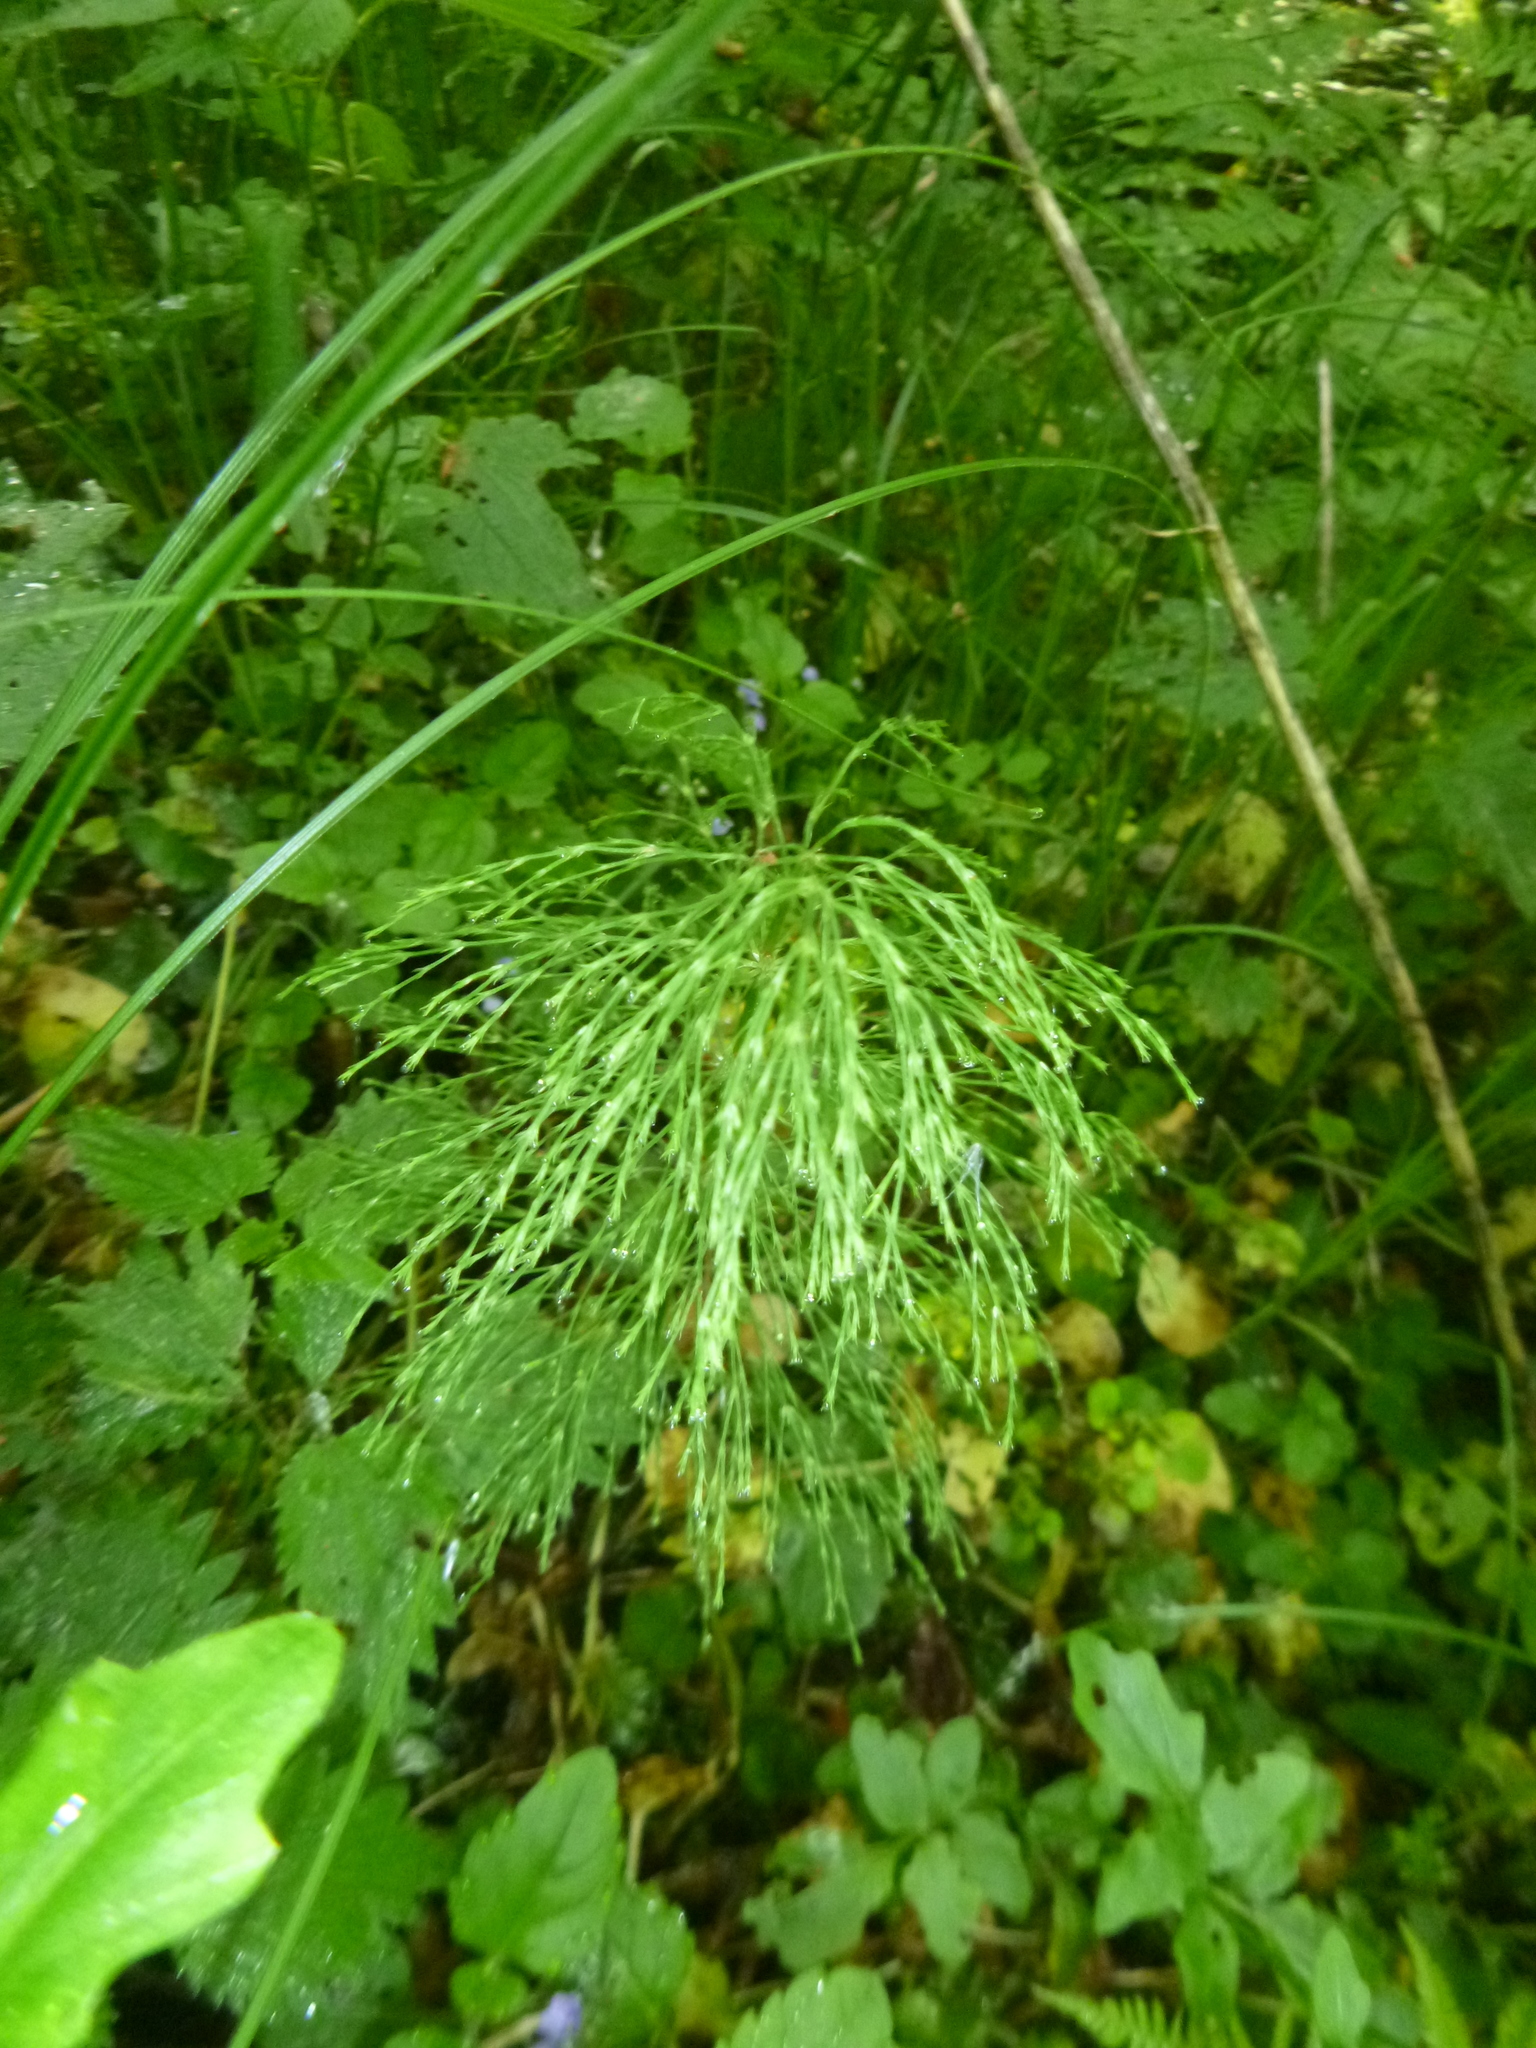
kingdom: Plantae
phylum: Tracheophyta
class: Polypodiopsida
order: Equisetales
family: Equisetaceae
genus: Equisetum
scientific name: Equisetum sylvaticum
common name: Wood horsetail
